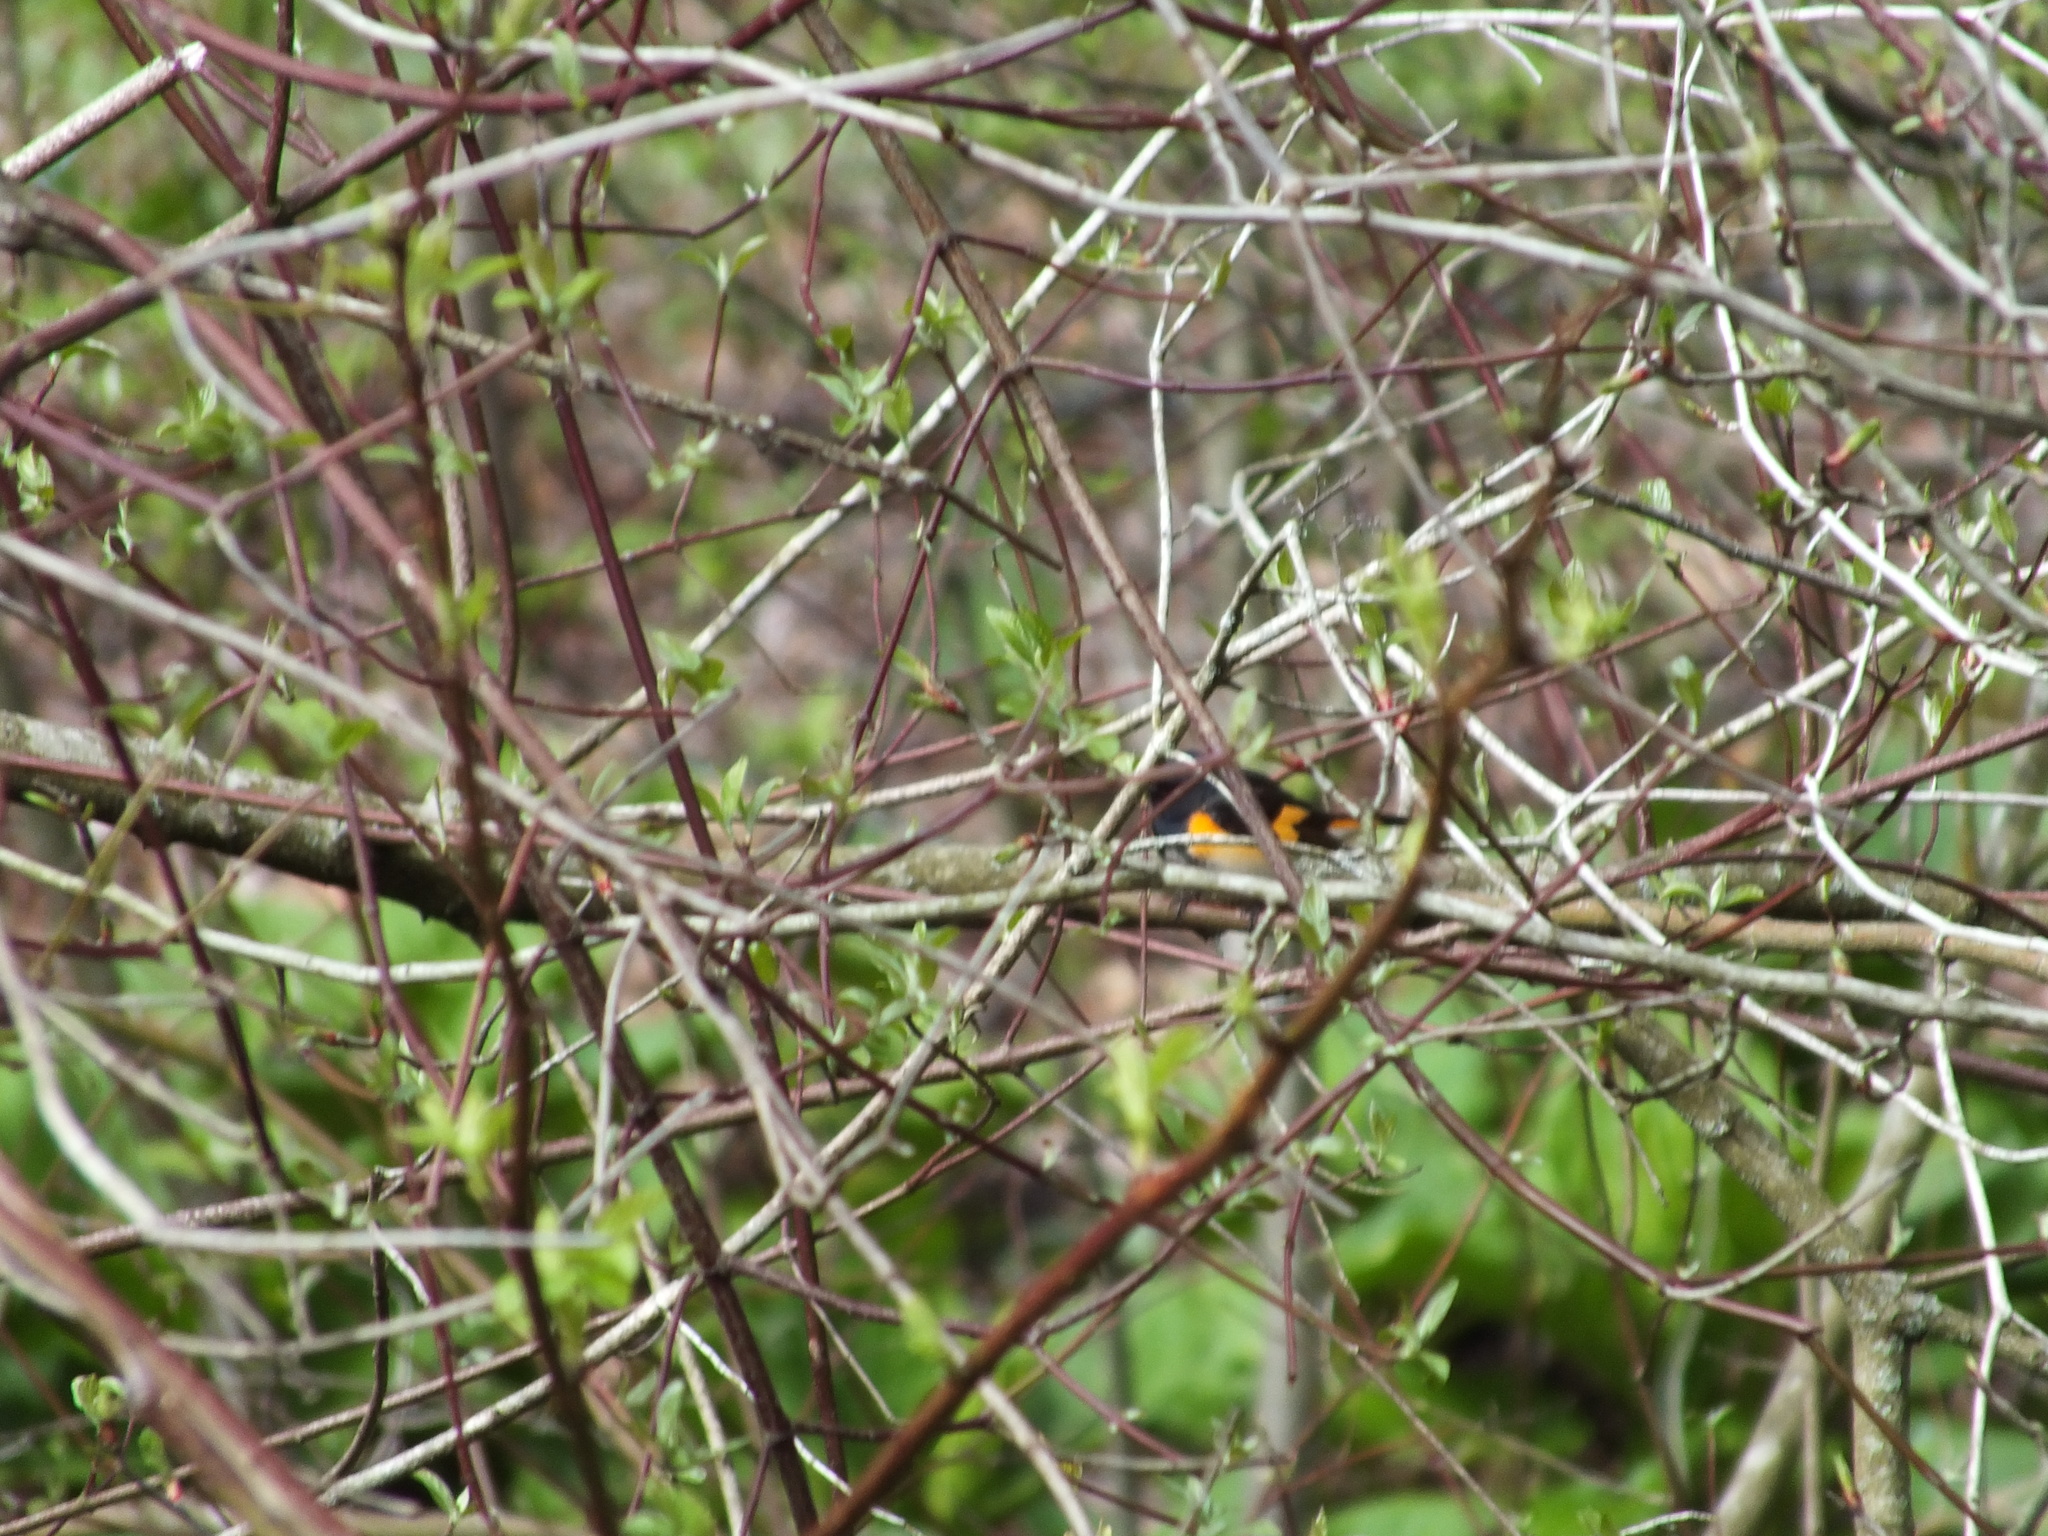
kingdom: Animalia
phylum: Chordata
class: Aves
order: Passeriformes
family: Parulidae
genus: Setophaga
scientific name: Setophaga ruticilla
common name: American redstart
